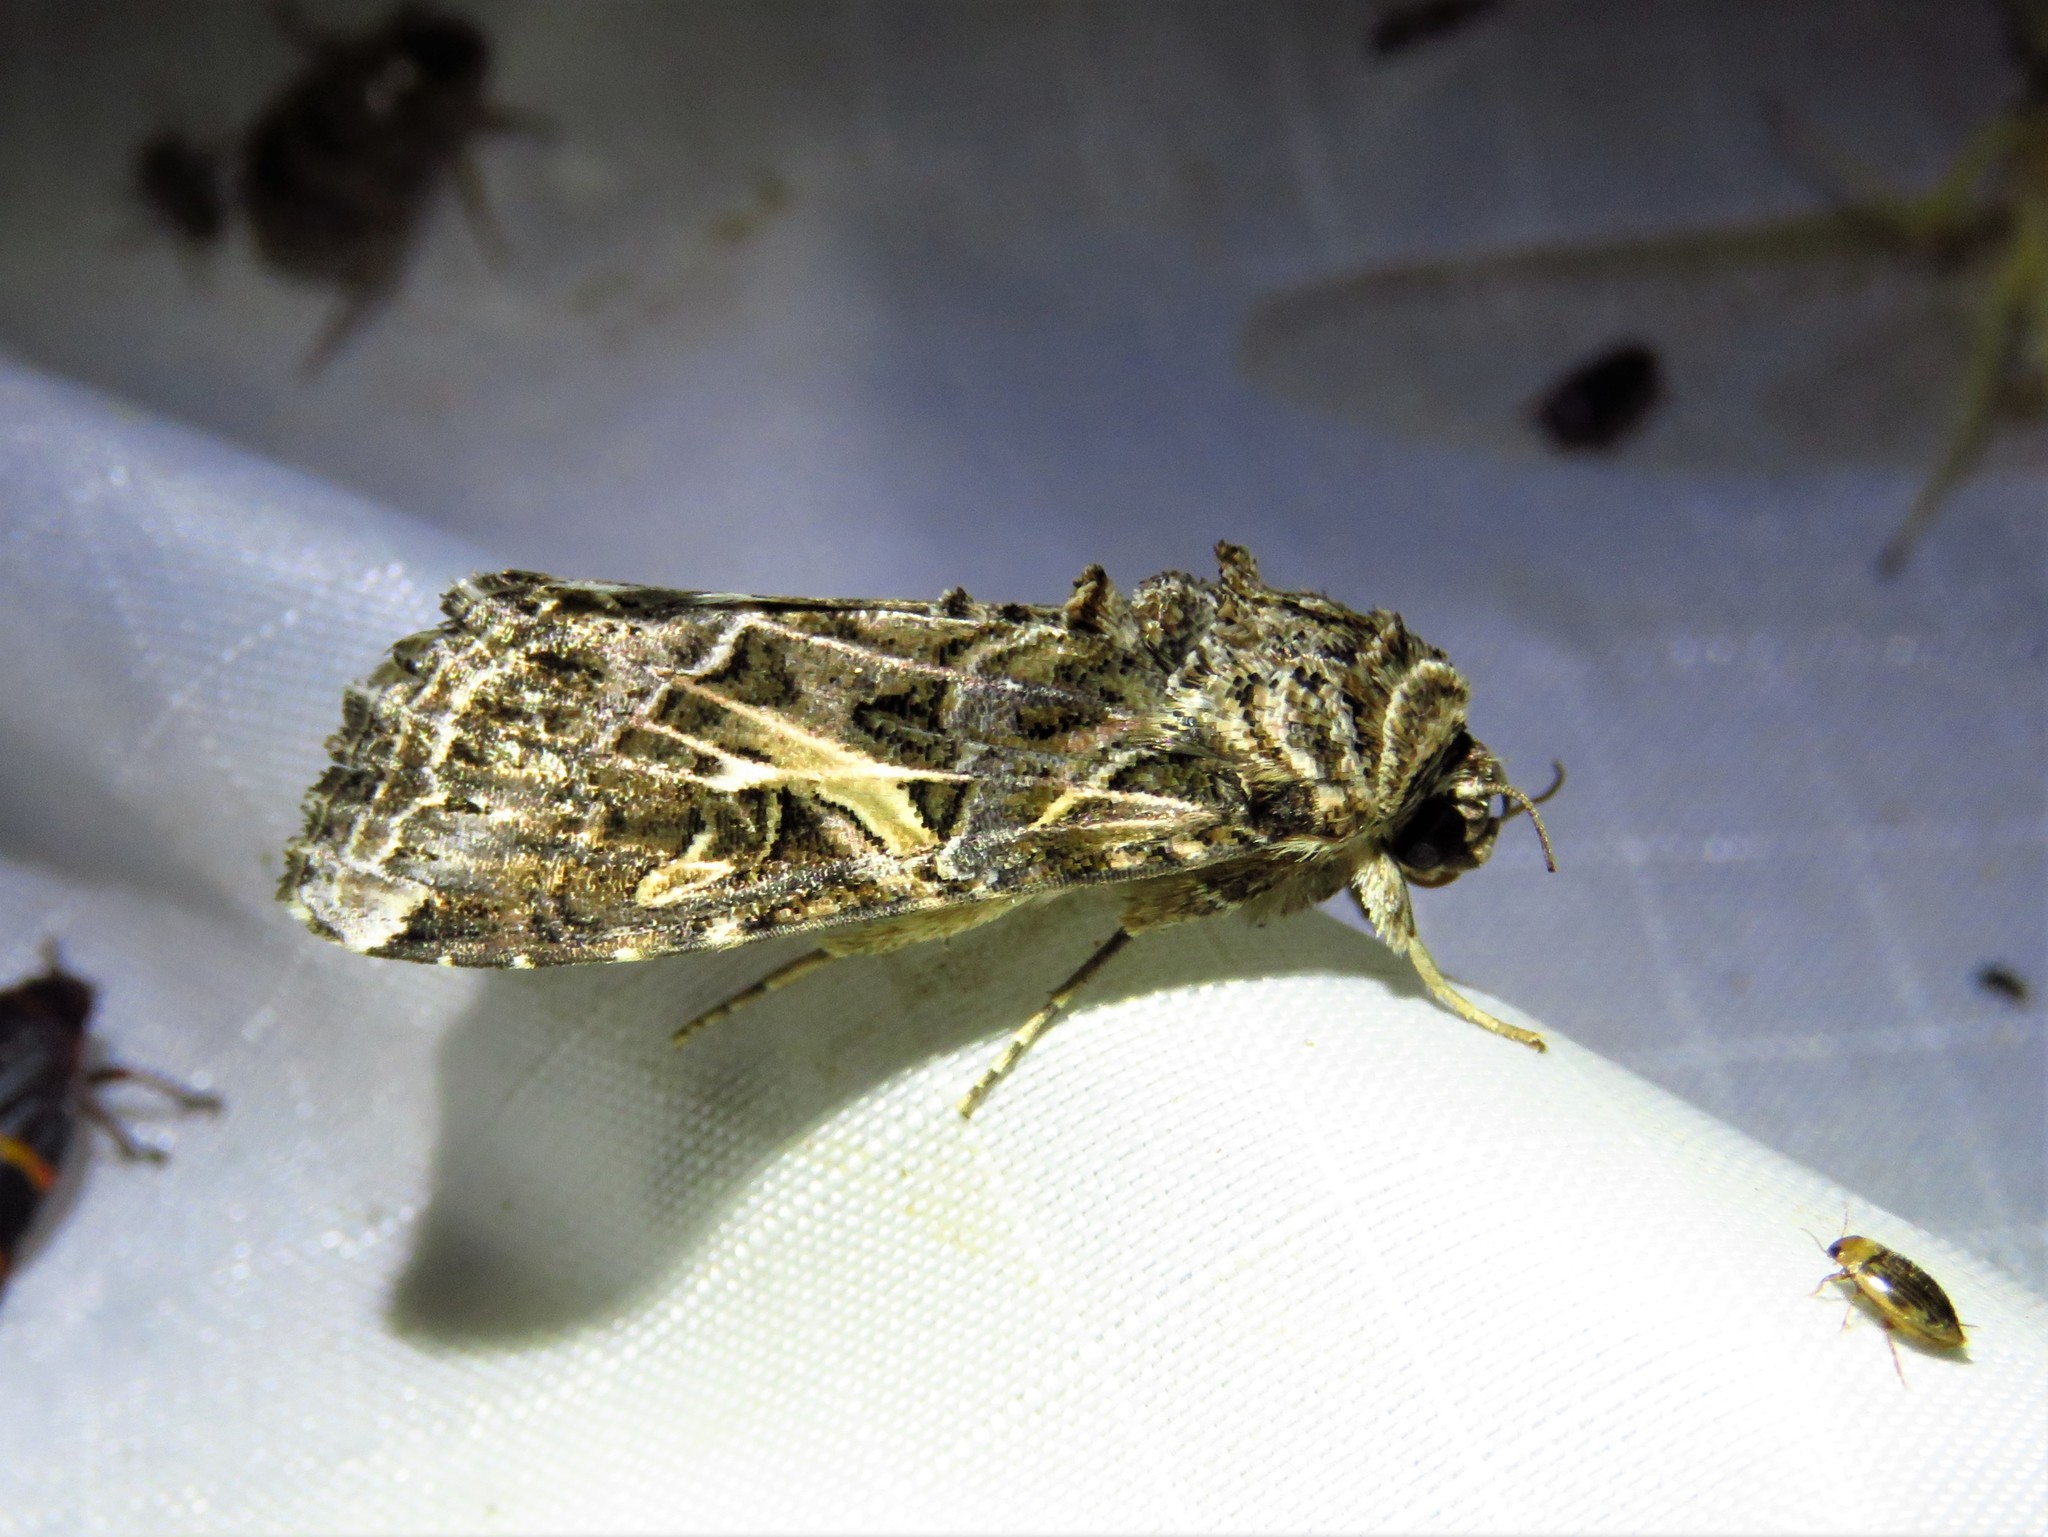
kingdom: Animalia
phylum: Arthropoda
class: Insecta
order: Lepidoptera
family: Noctuidae
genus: Spodoptera
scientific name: Spodoptera ornithogalli
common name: Yellow-striped armyworm
